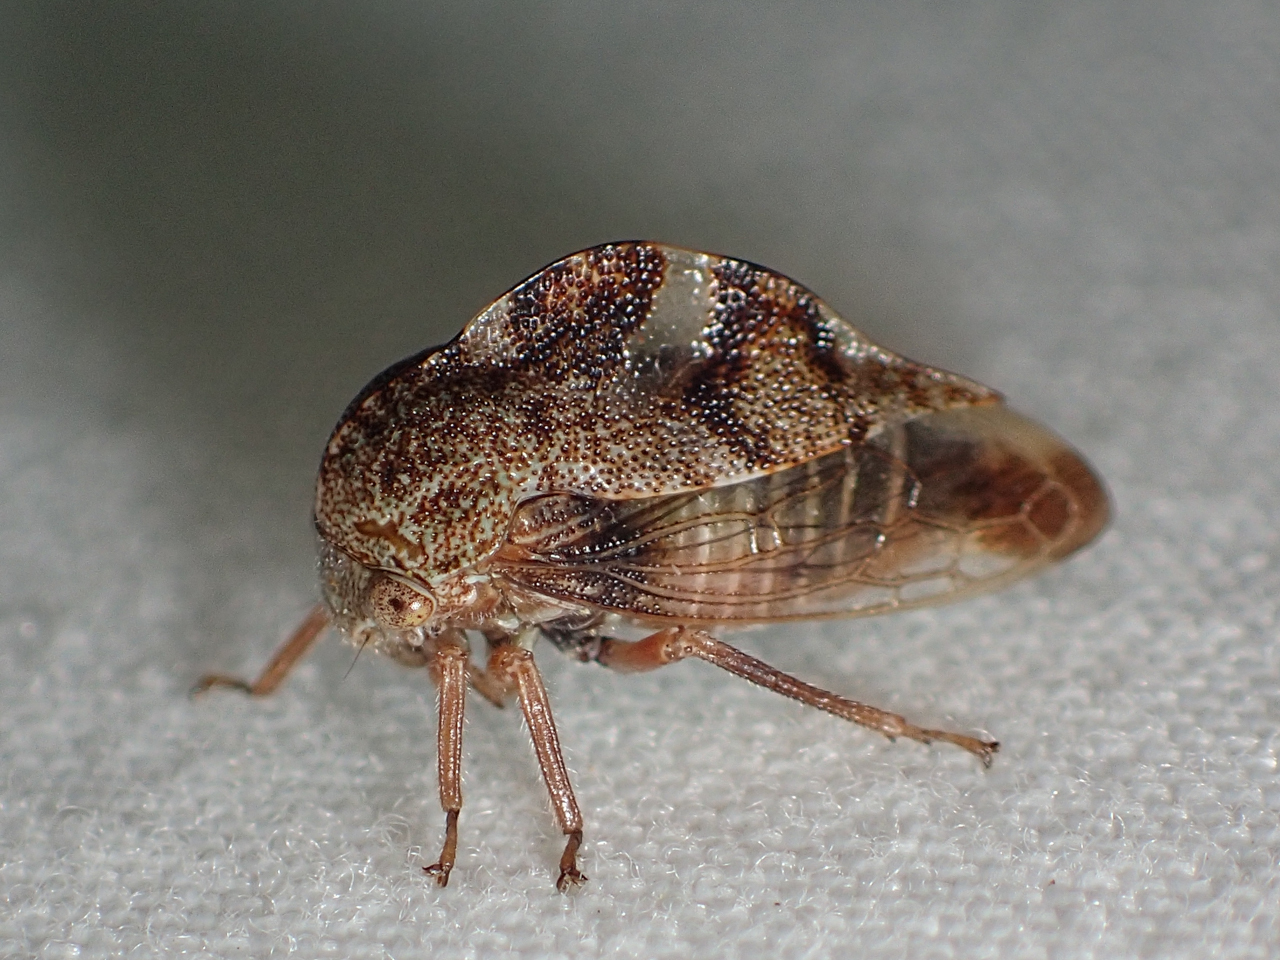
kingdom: Animalia
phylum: Arthropoda
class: Insecta
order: Hemiptera
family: Membracidae
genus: Cyrtolobus
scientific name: Cyrtolobus tuberosa
